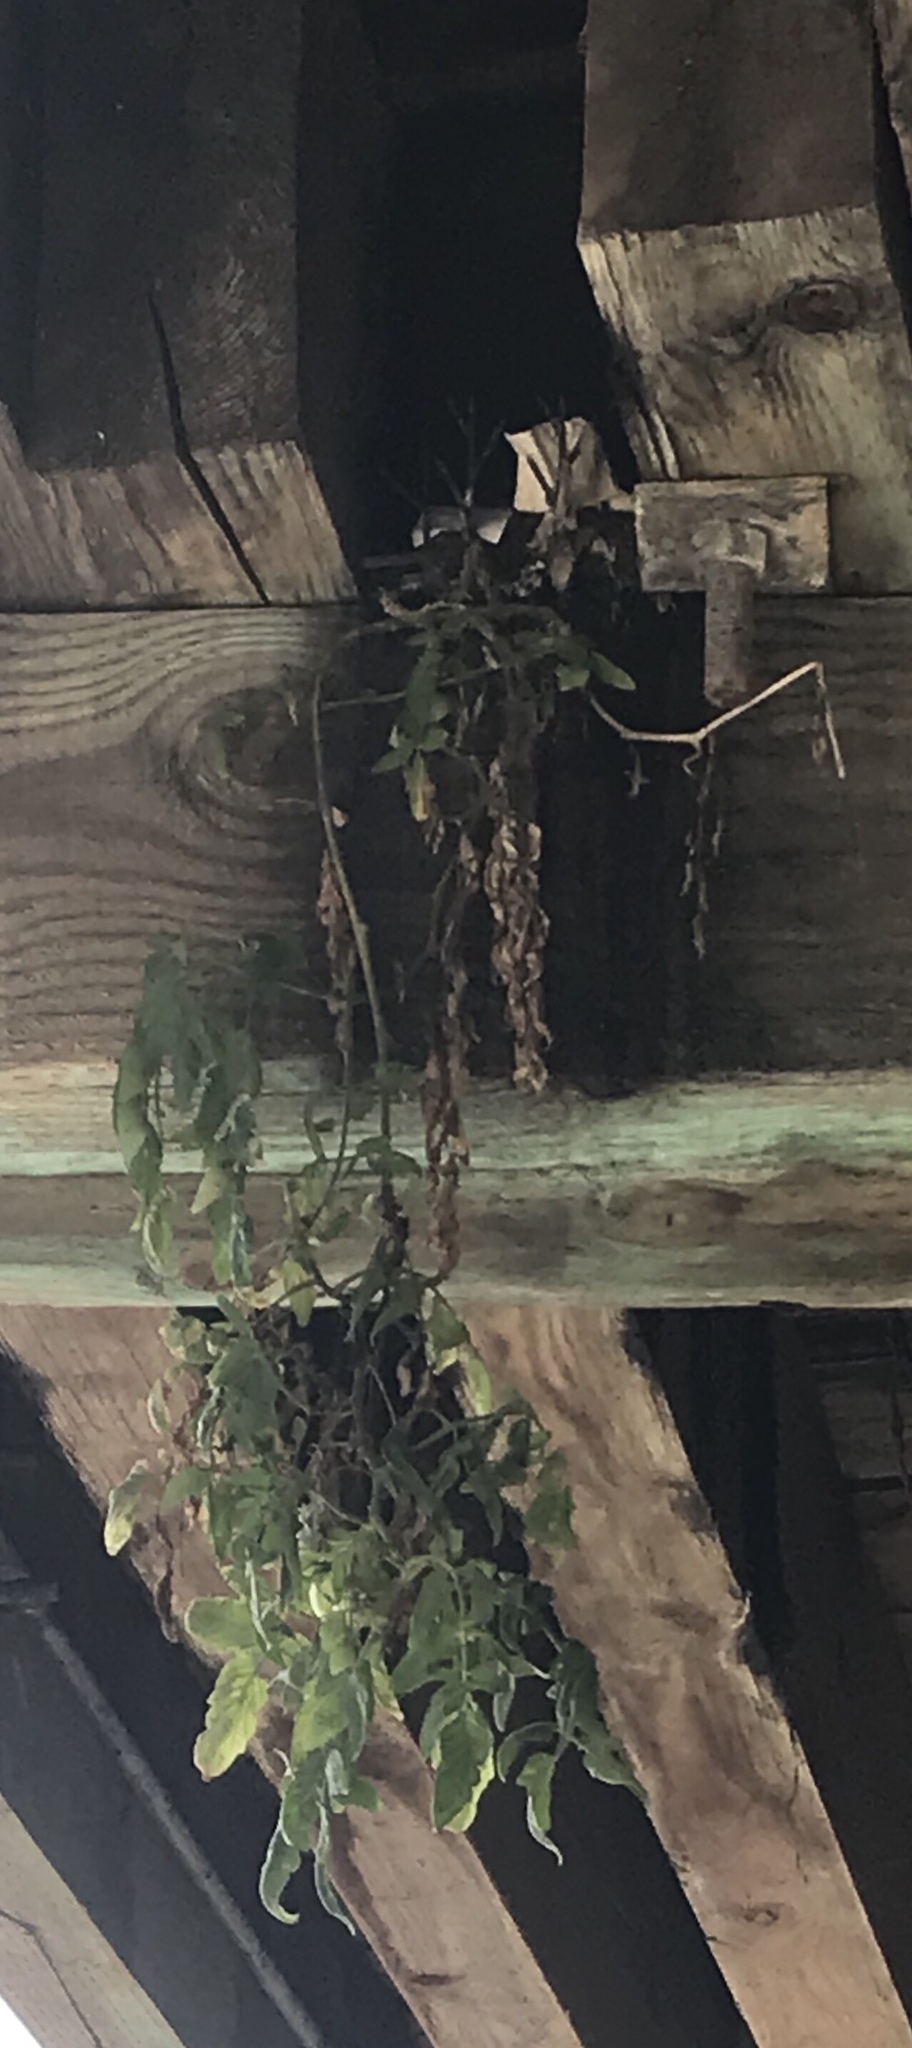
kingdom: Plantae
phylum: Tracheophyta
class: Magnoliopsida
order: Solanales
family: Solanaceae
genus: Solanum
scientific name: Solanum lycopersicum
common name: Garden tomato
